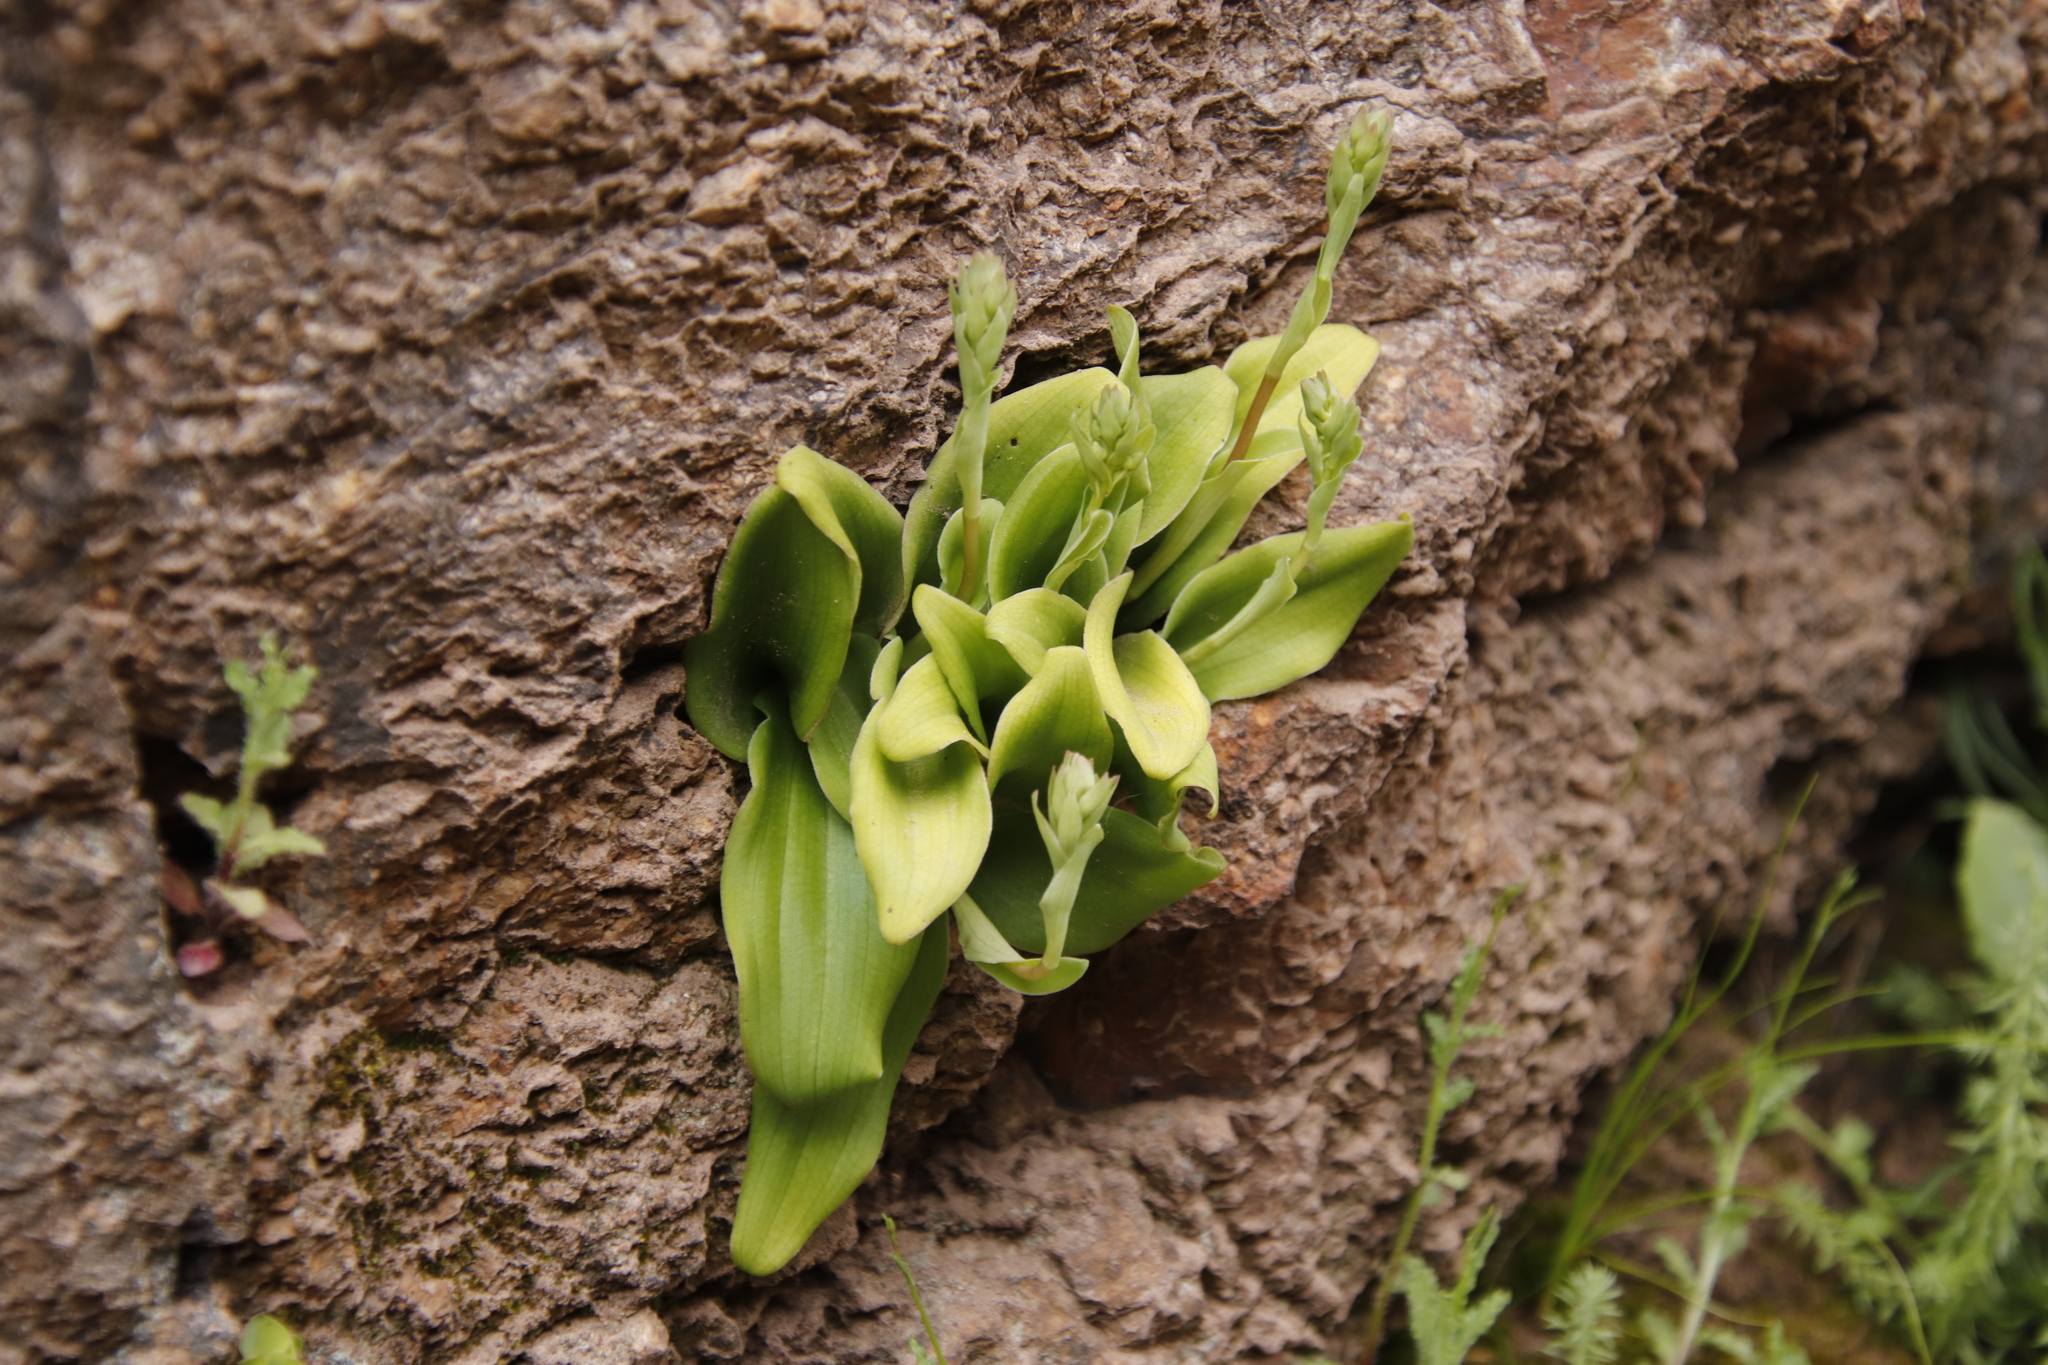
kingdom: Plantae
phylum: Tracheophyta
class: Liliopsida
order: Asparagales
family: Orchidaceae
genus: Satyrium
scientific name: Satyrium humile
